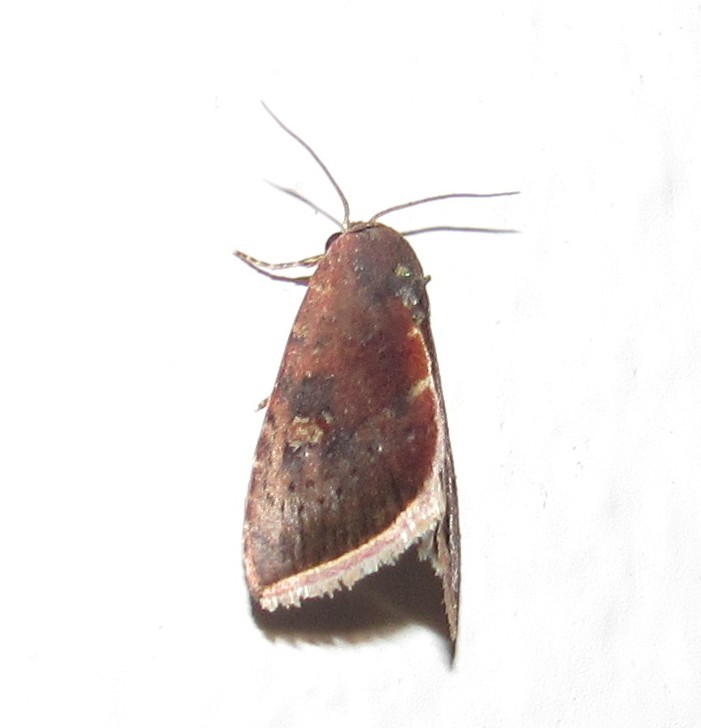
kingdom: Animalia
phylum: Arthropoda
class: Insecta
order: Lepidoptera
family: Noctuidae
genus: Micrathetis
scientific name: Micrathetis canifimbria
